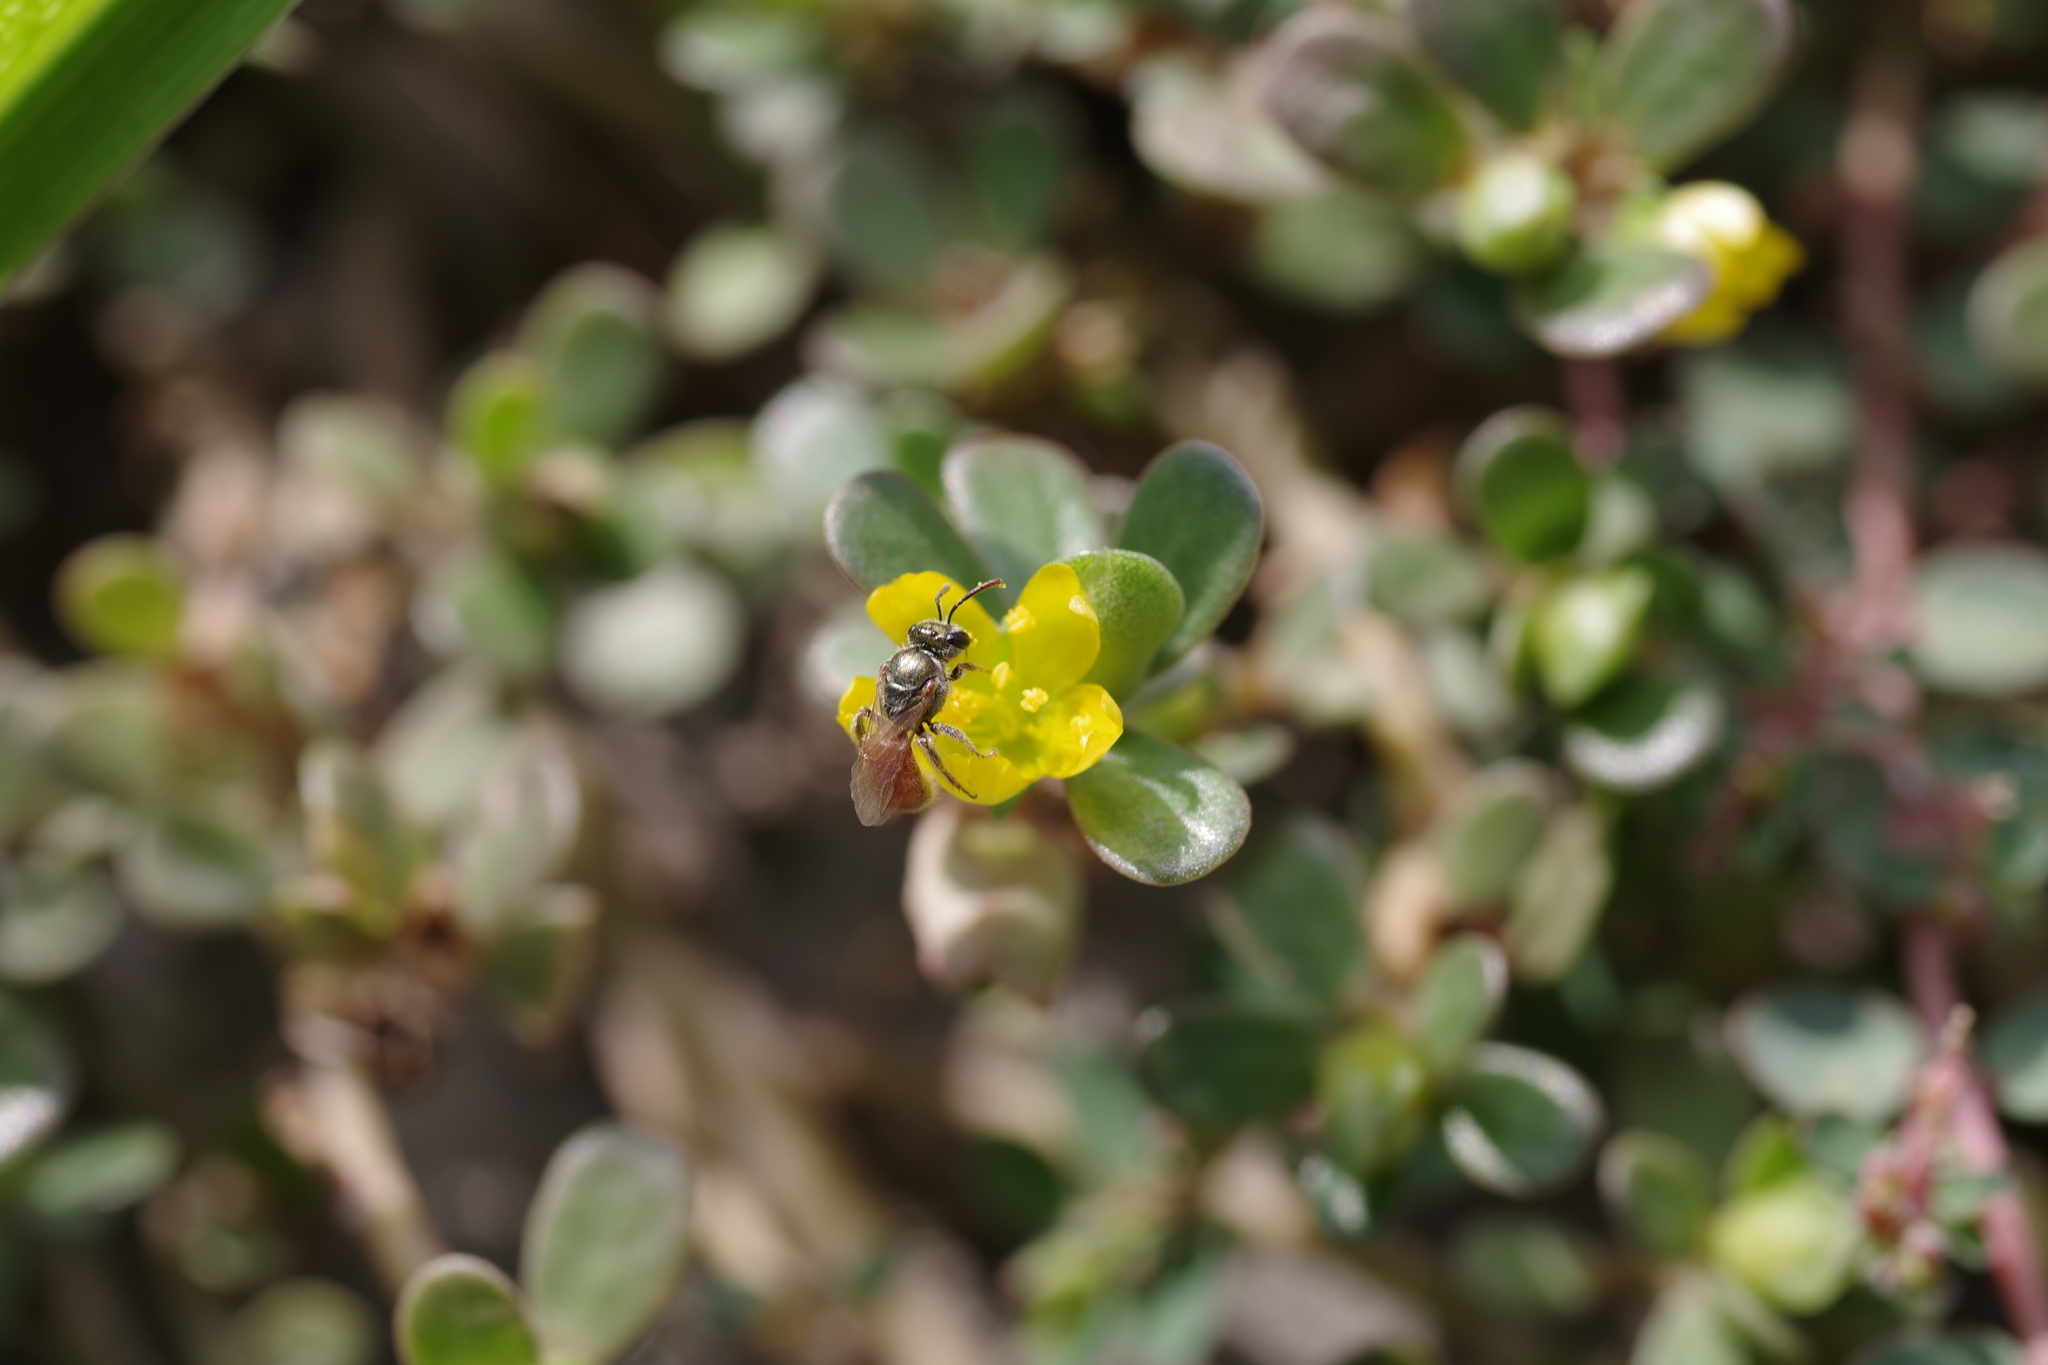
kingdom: Plantae
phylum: Tracheophyta
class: Magnoliopsida
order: Caryophyllales
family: Portulacaceae
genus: Portulaca
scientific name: Portulaca oleracea
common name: Common purslane
